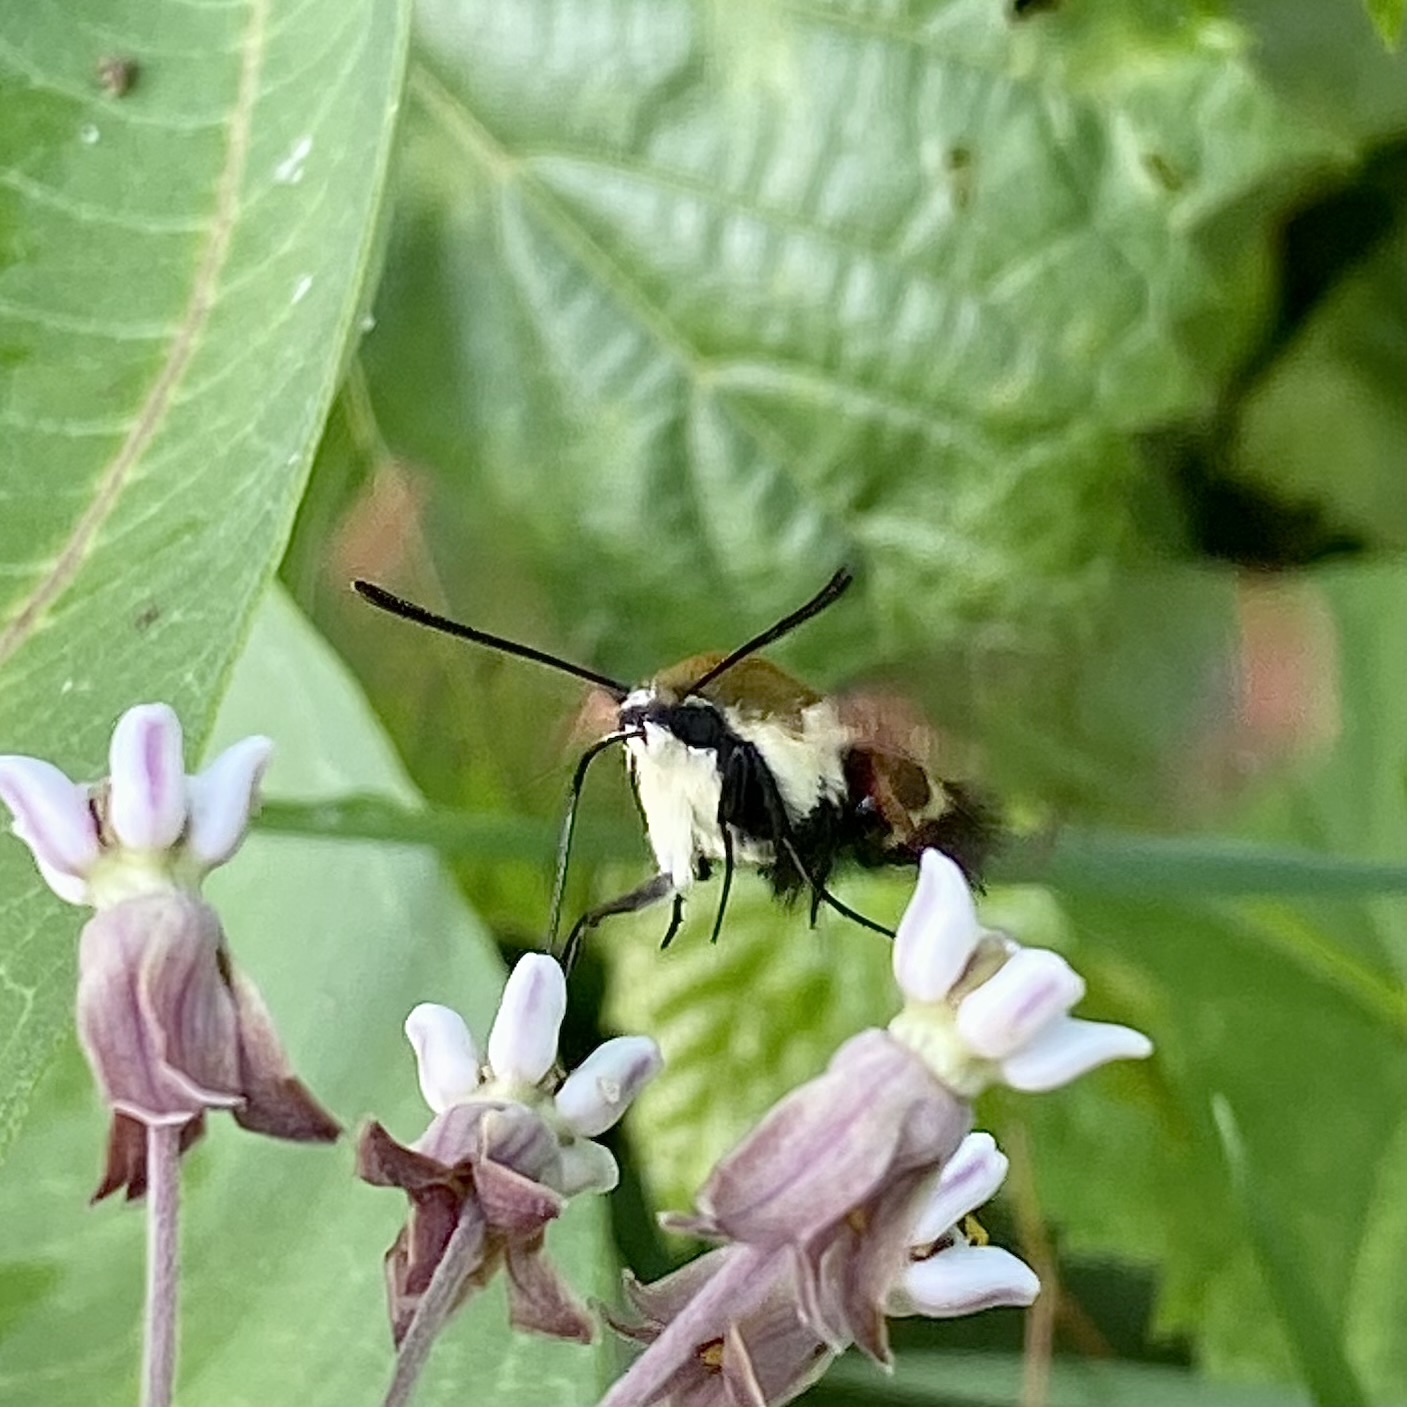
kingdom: Animalia
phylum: Arthropoda
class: Insecta
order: Lepidoptera
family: Sphingidae
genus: Hemaris
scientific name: Hemaris diffinis
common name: Bumblebee moth
